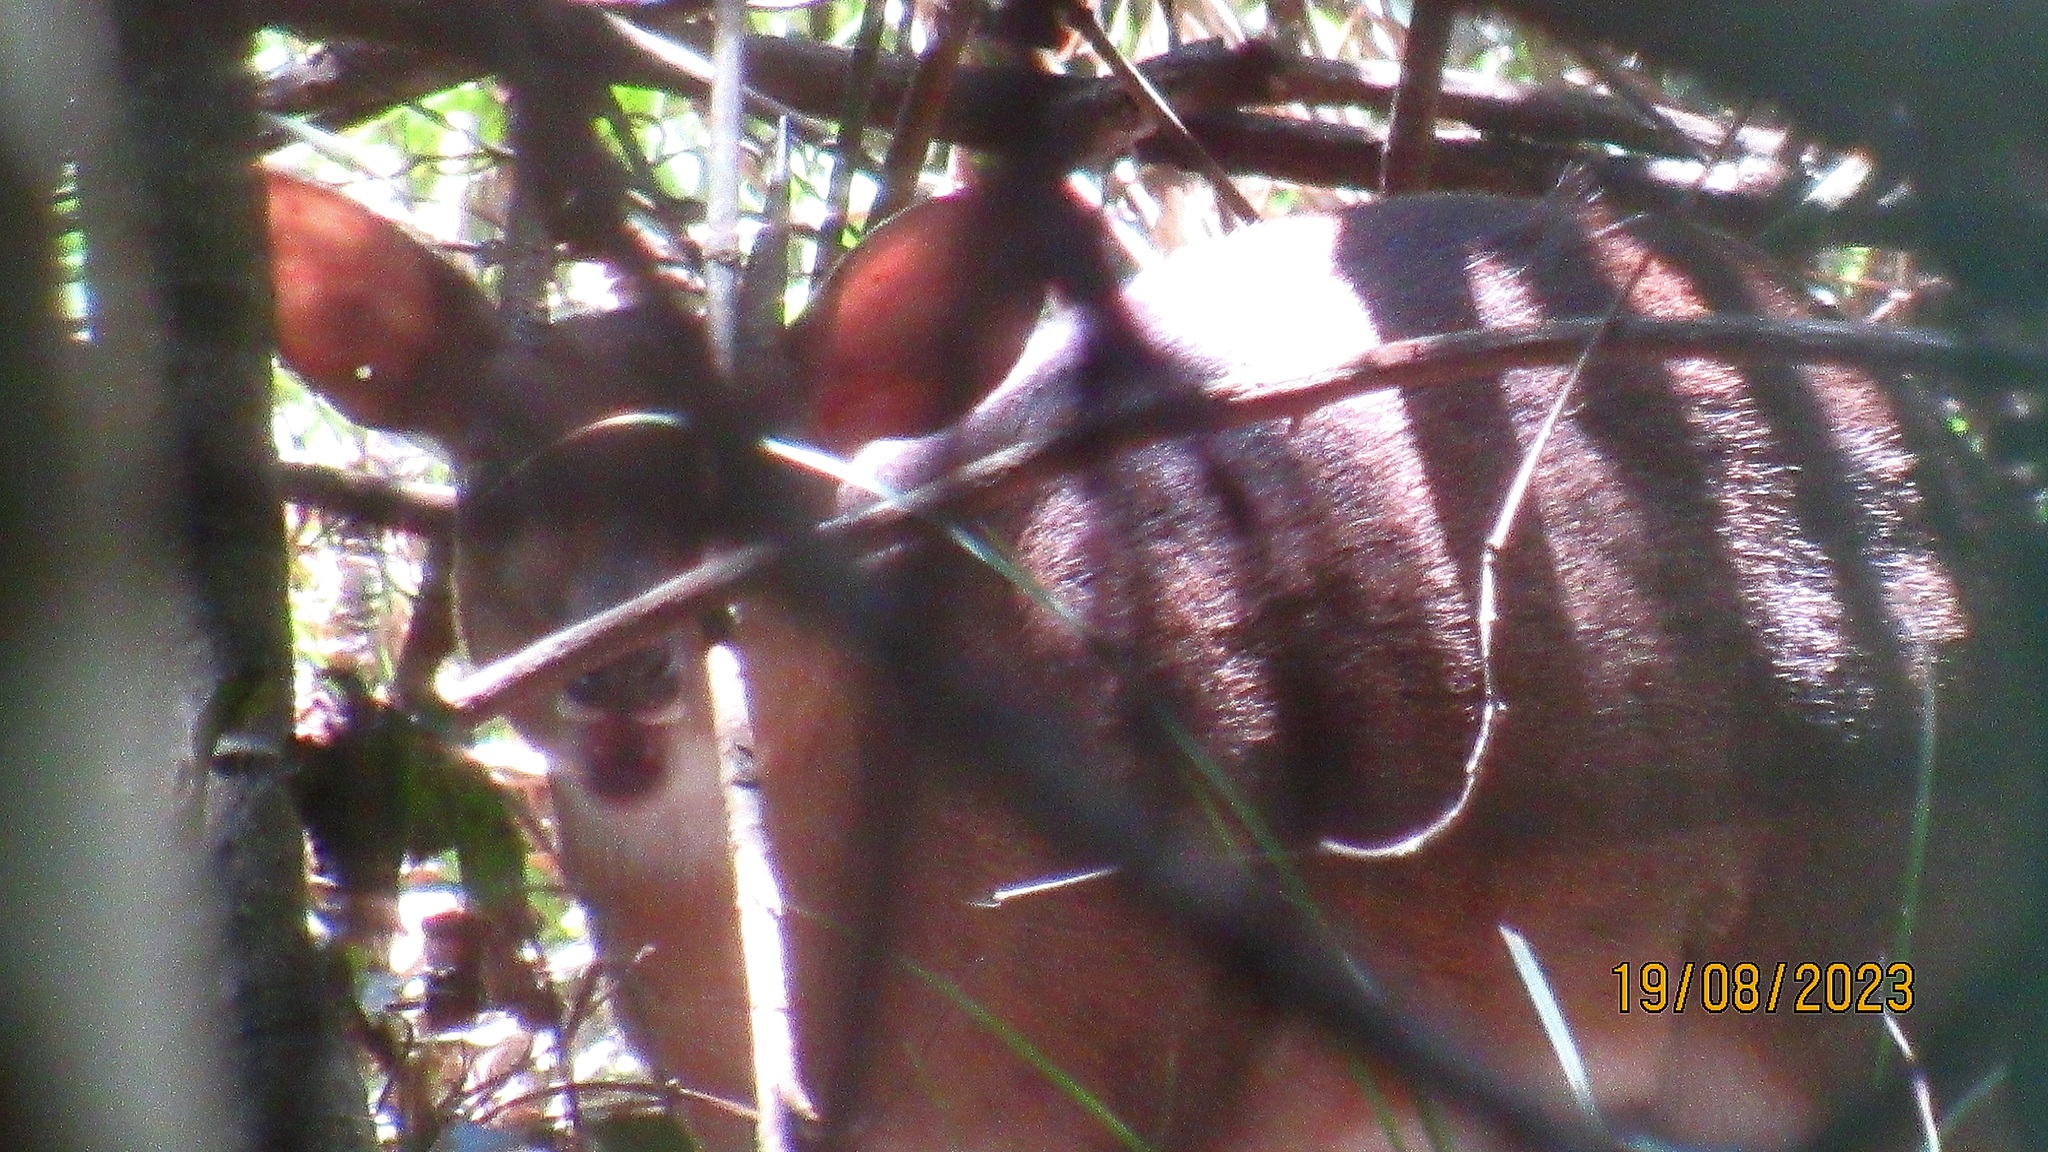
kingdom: Animalia
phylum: Chordata
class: Mammalia
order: Artiodactyla
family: Bovidae
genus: Neotragus
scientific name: Neotragus moschatus
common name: Suni
